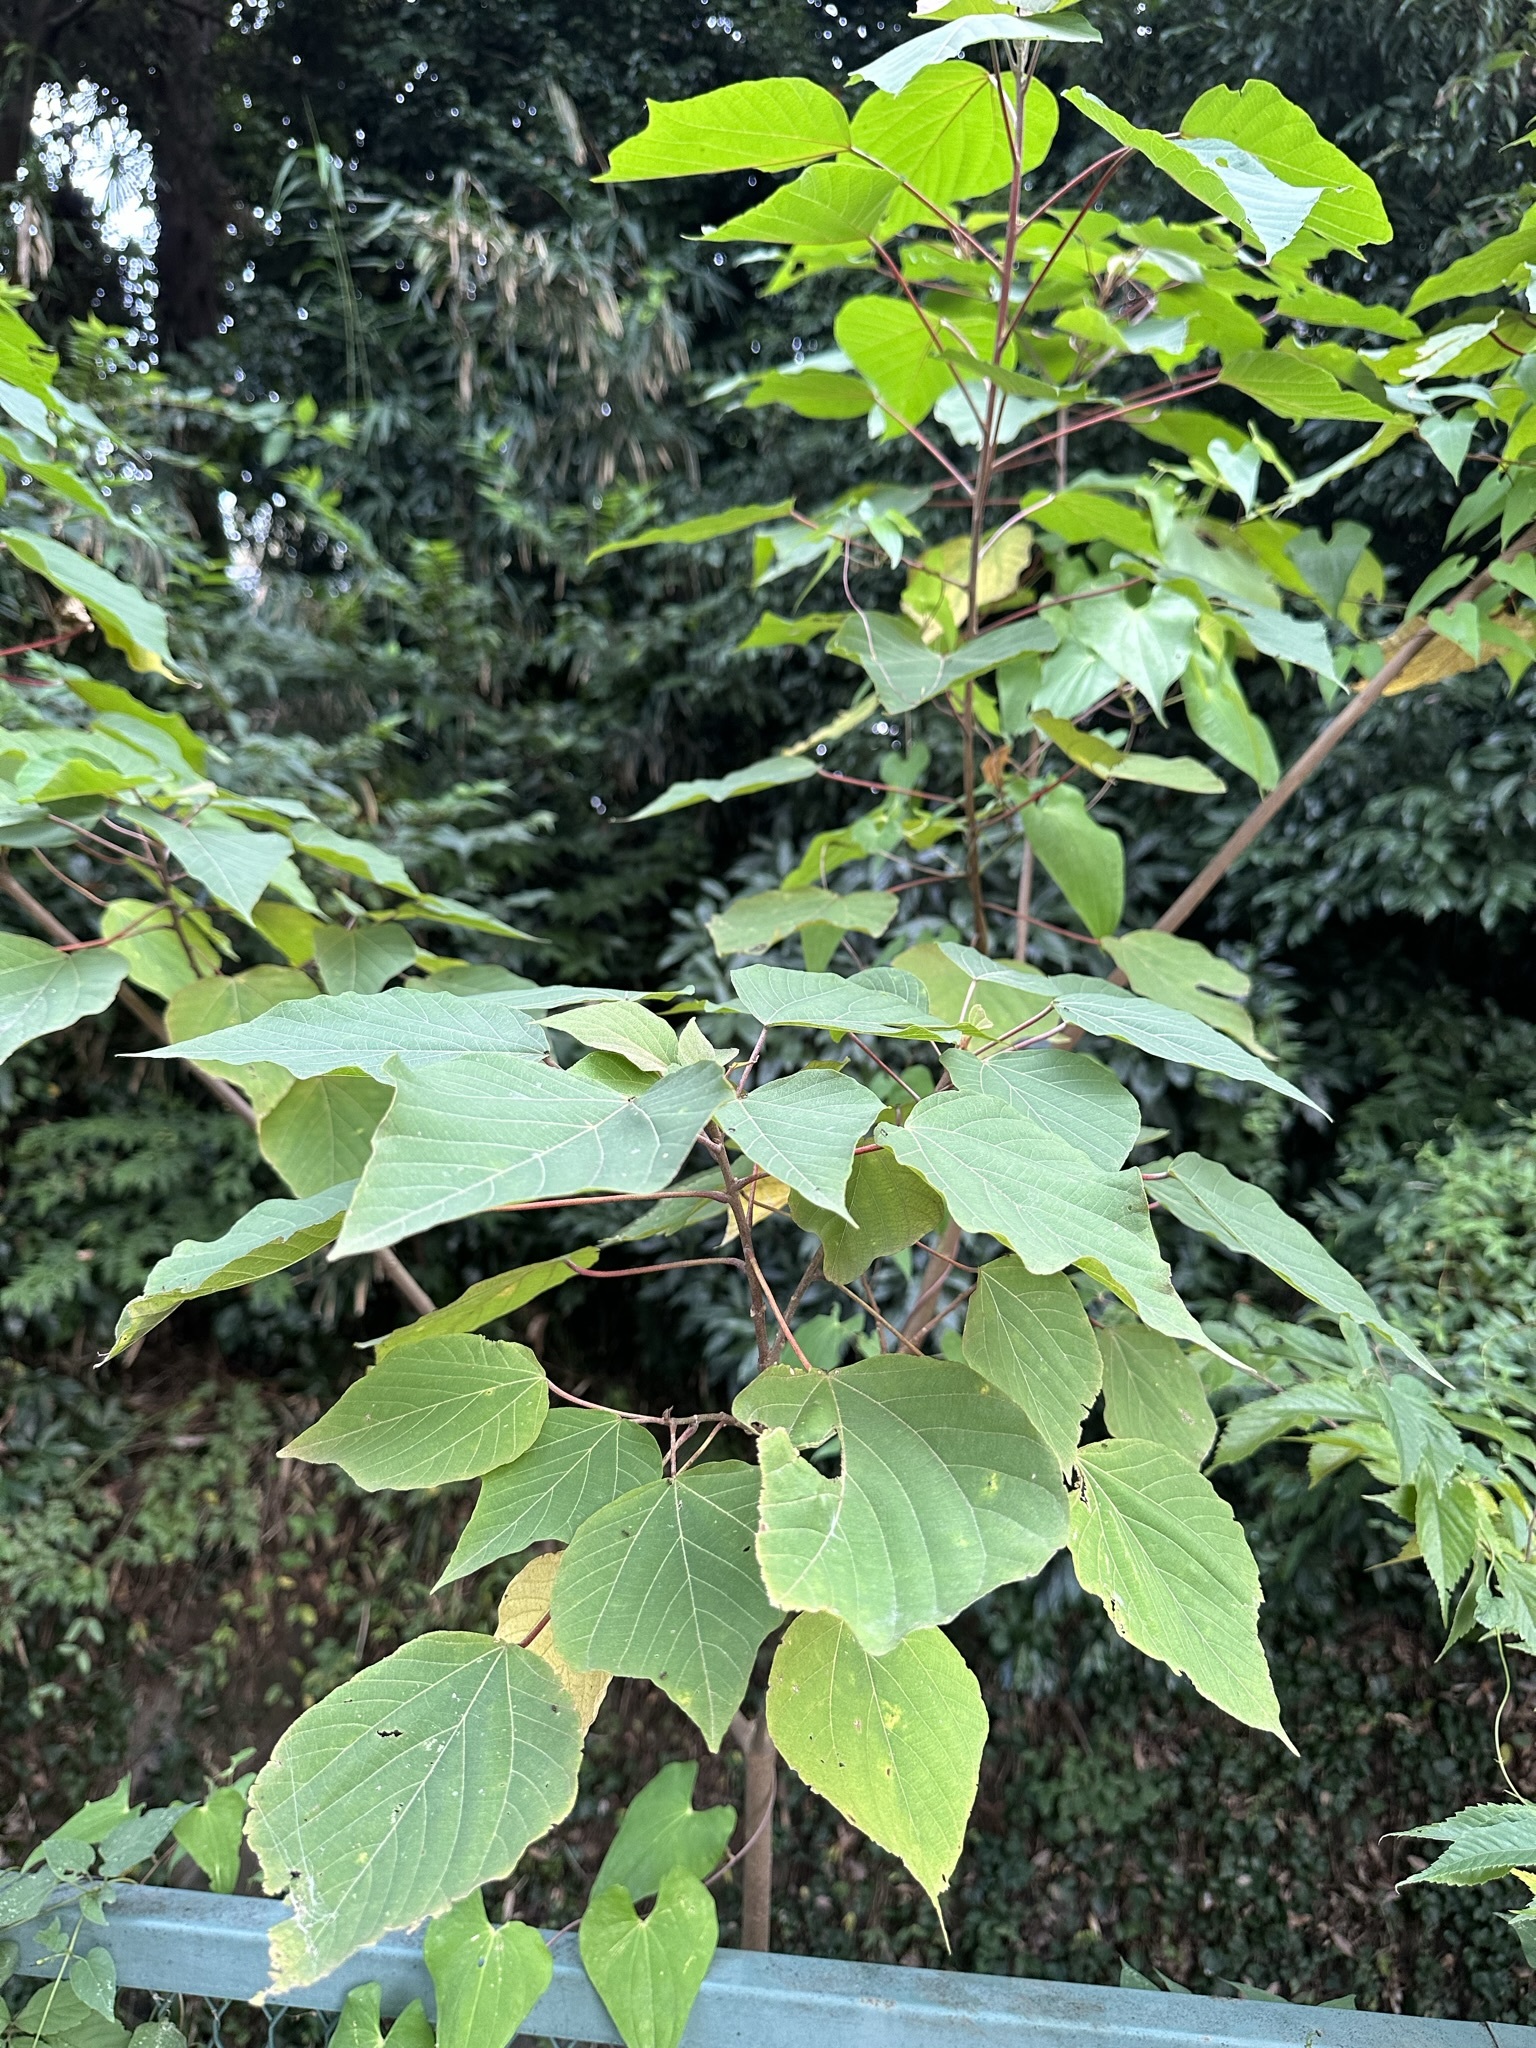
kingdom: Plantae
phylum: Tracheophyta
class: Magnoliopsida
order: Malpighiales
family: Euphorbiaceae
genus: Mallotus
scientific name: Mallotus japonicus
